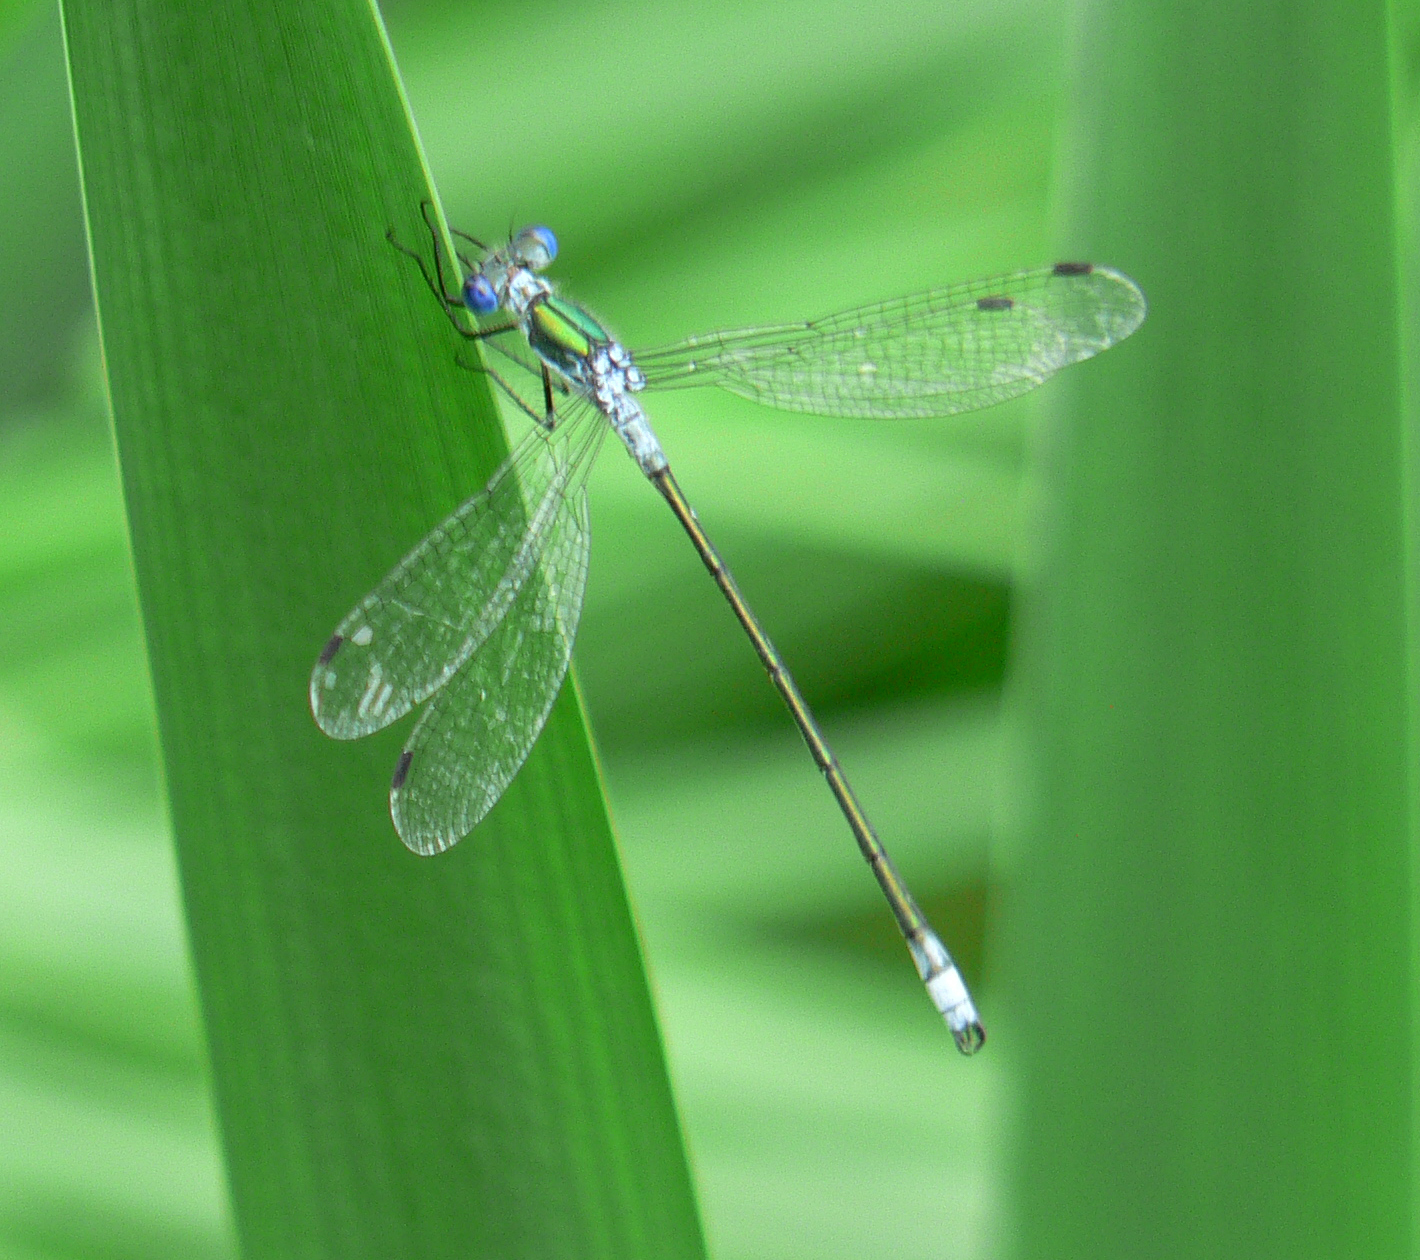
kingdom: Animalia
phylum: Arthropoda
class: Insecta
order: Odonata
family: Lestidae
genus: Lestes
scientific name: Lestes sponsa
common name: Common spreadwing
